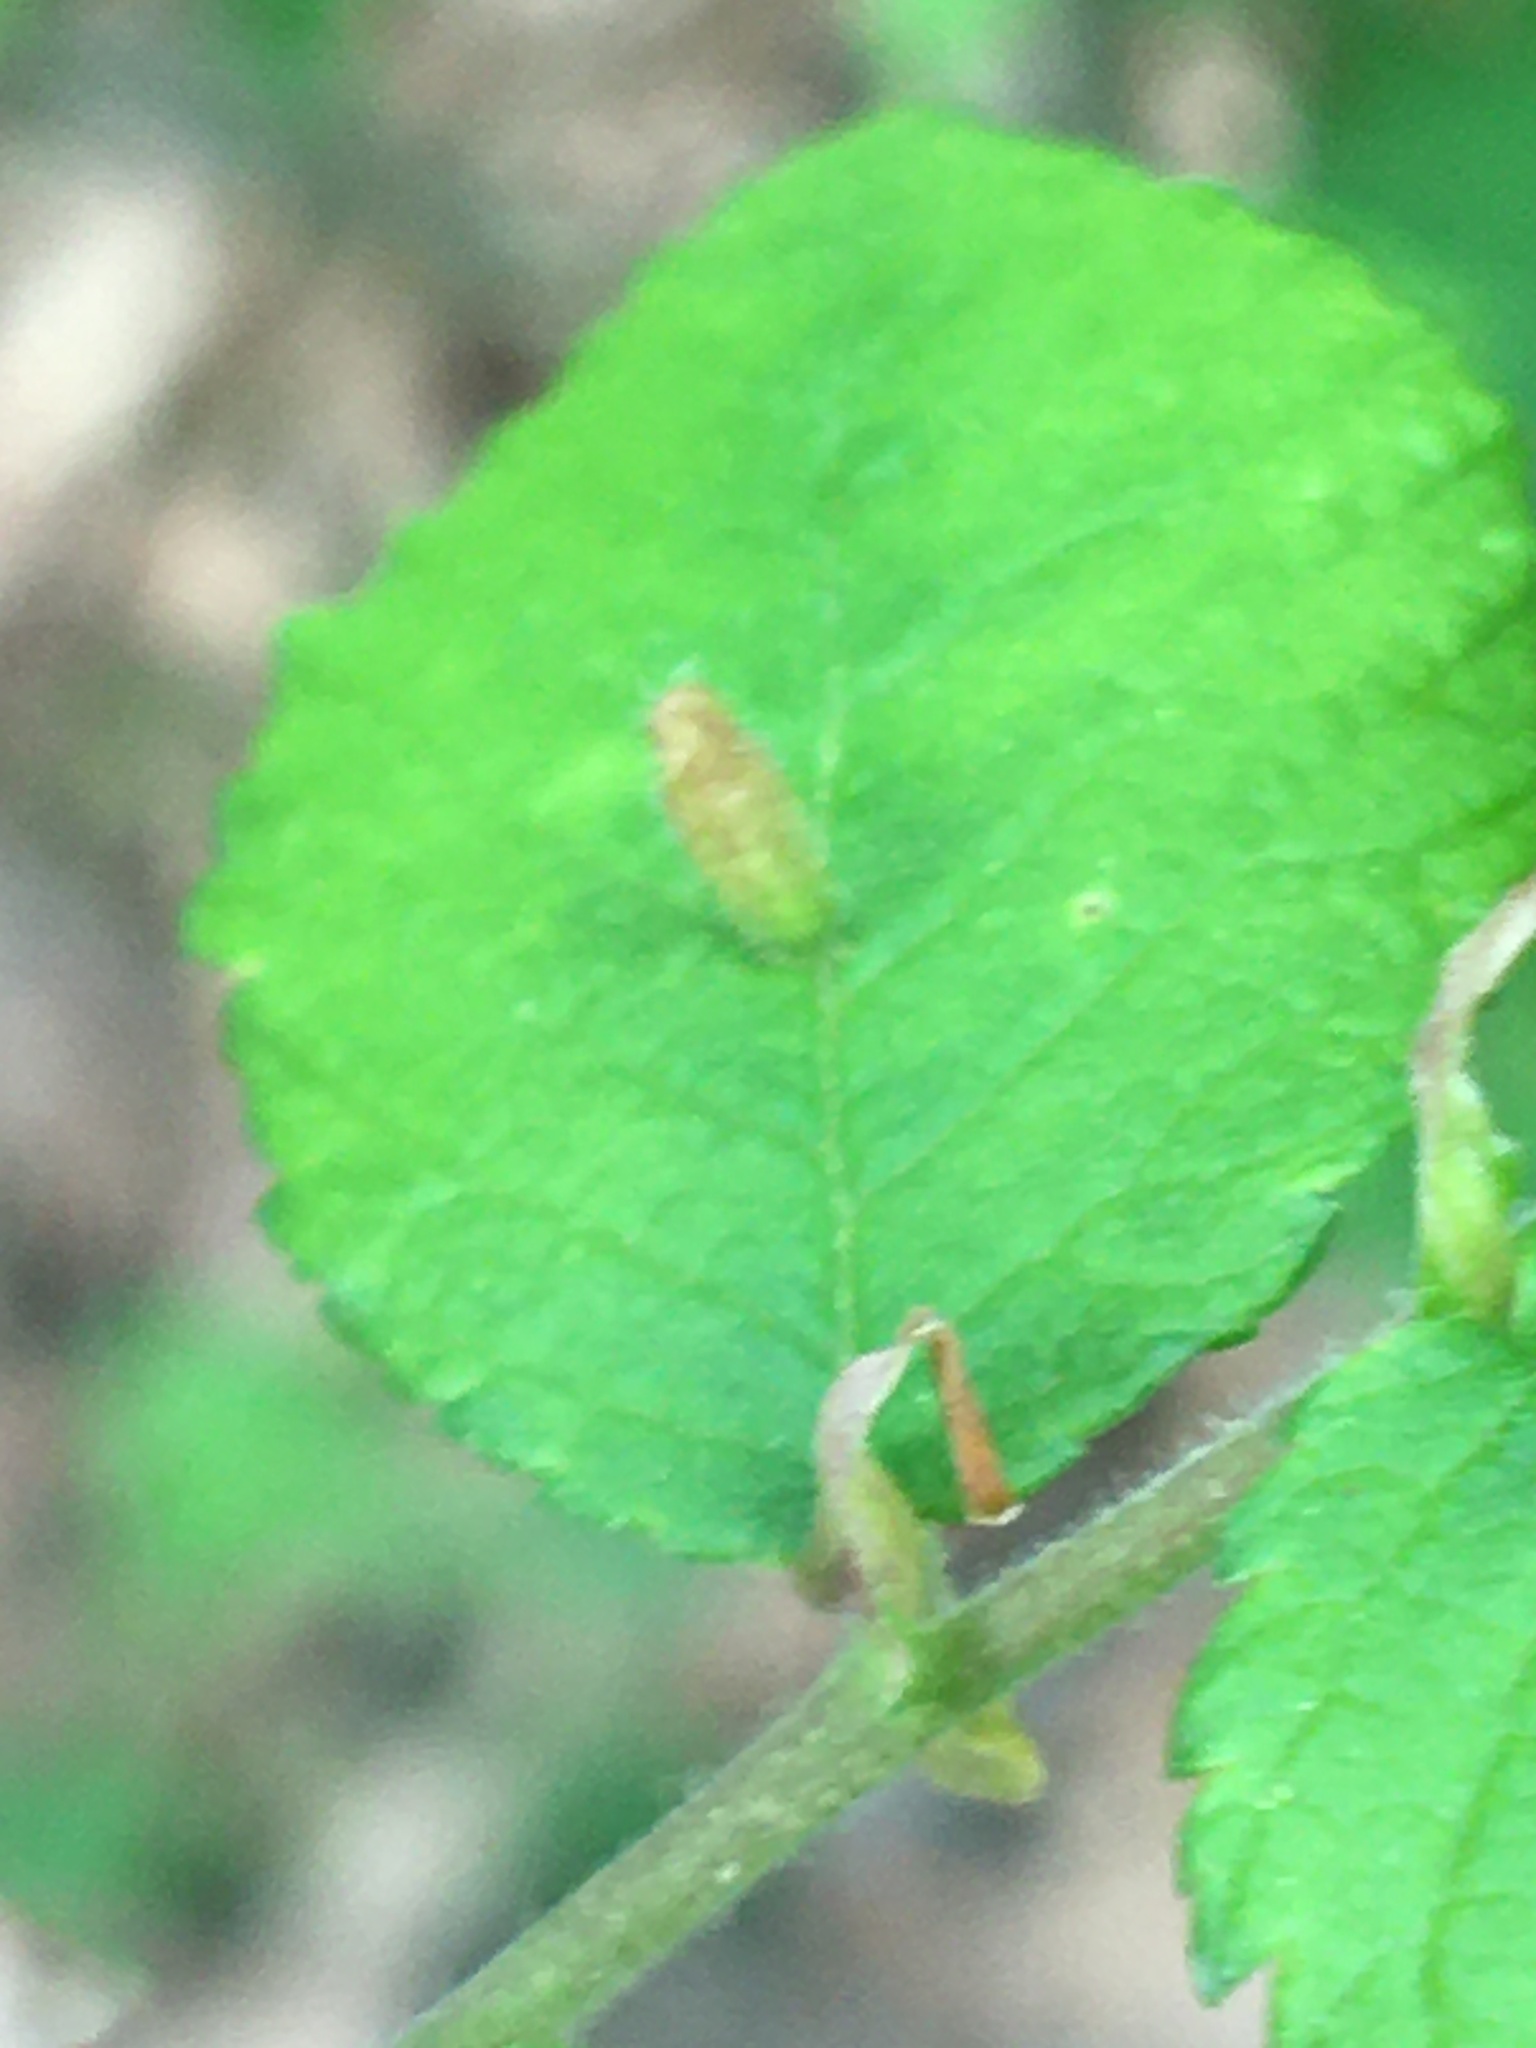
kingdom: Animalia
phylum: Arthropoda
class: Arachnida
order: Trombidiformes
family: Eriophyidae
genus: Aceria
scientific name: Aceria
